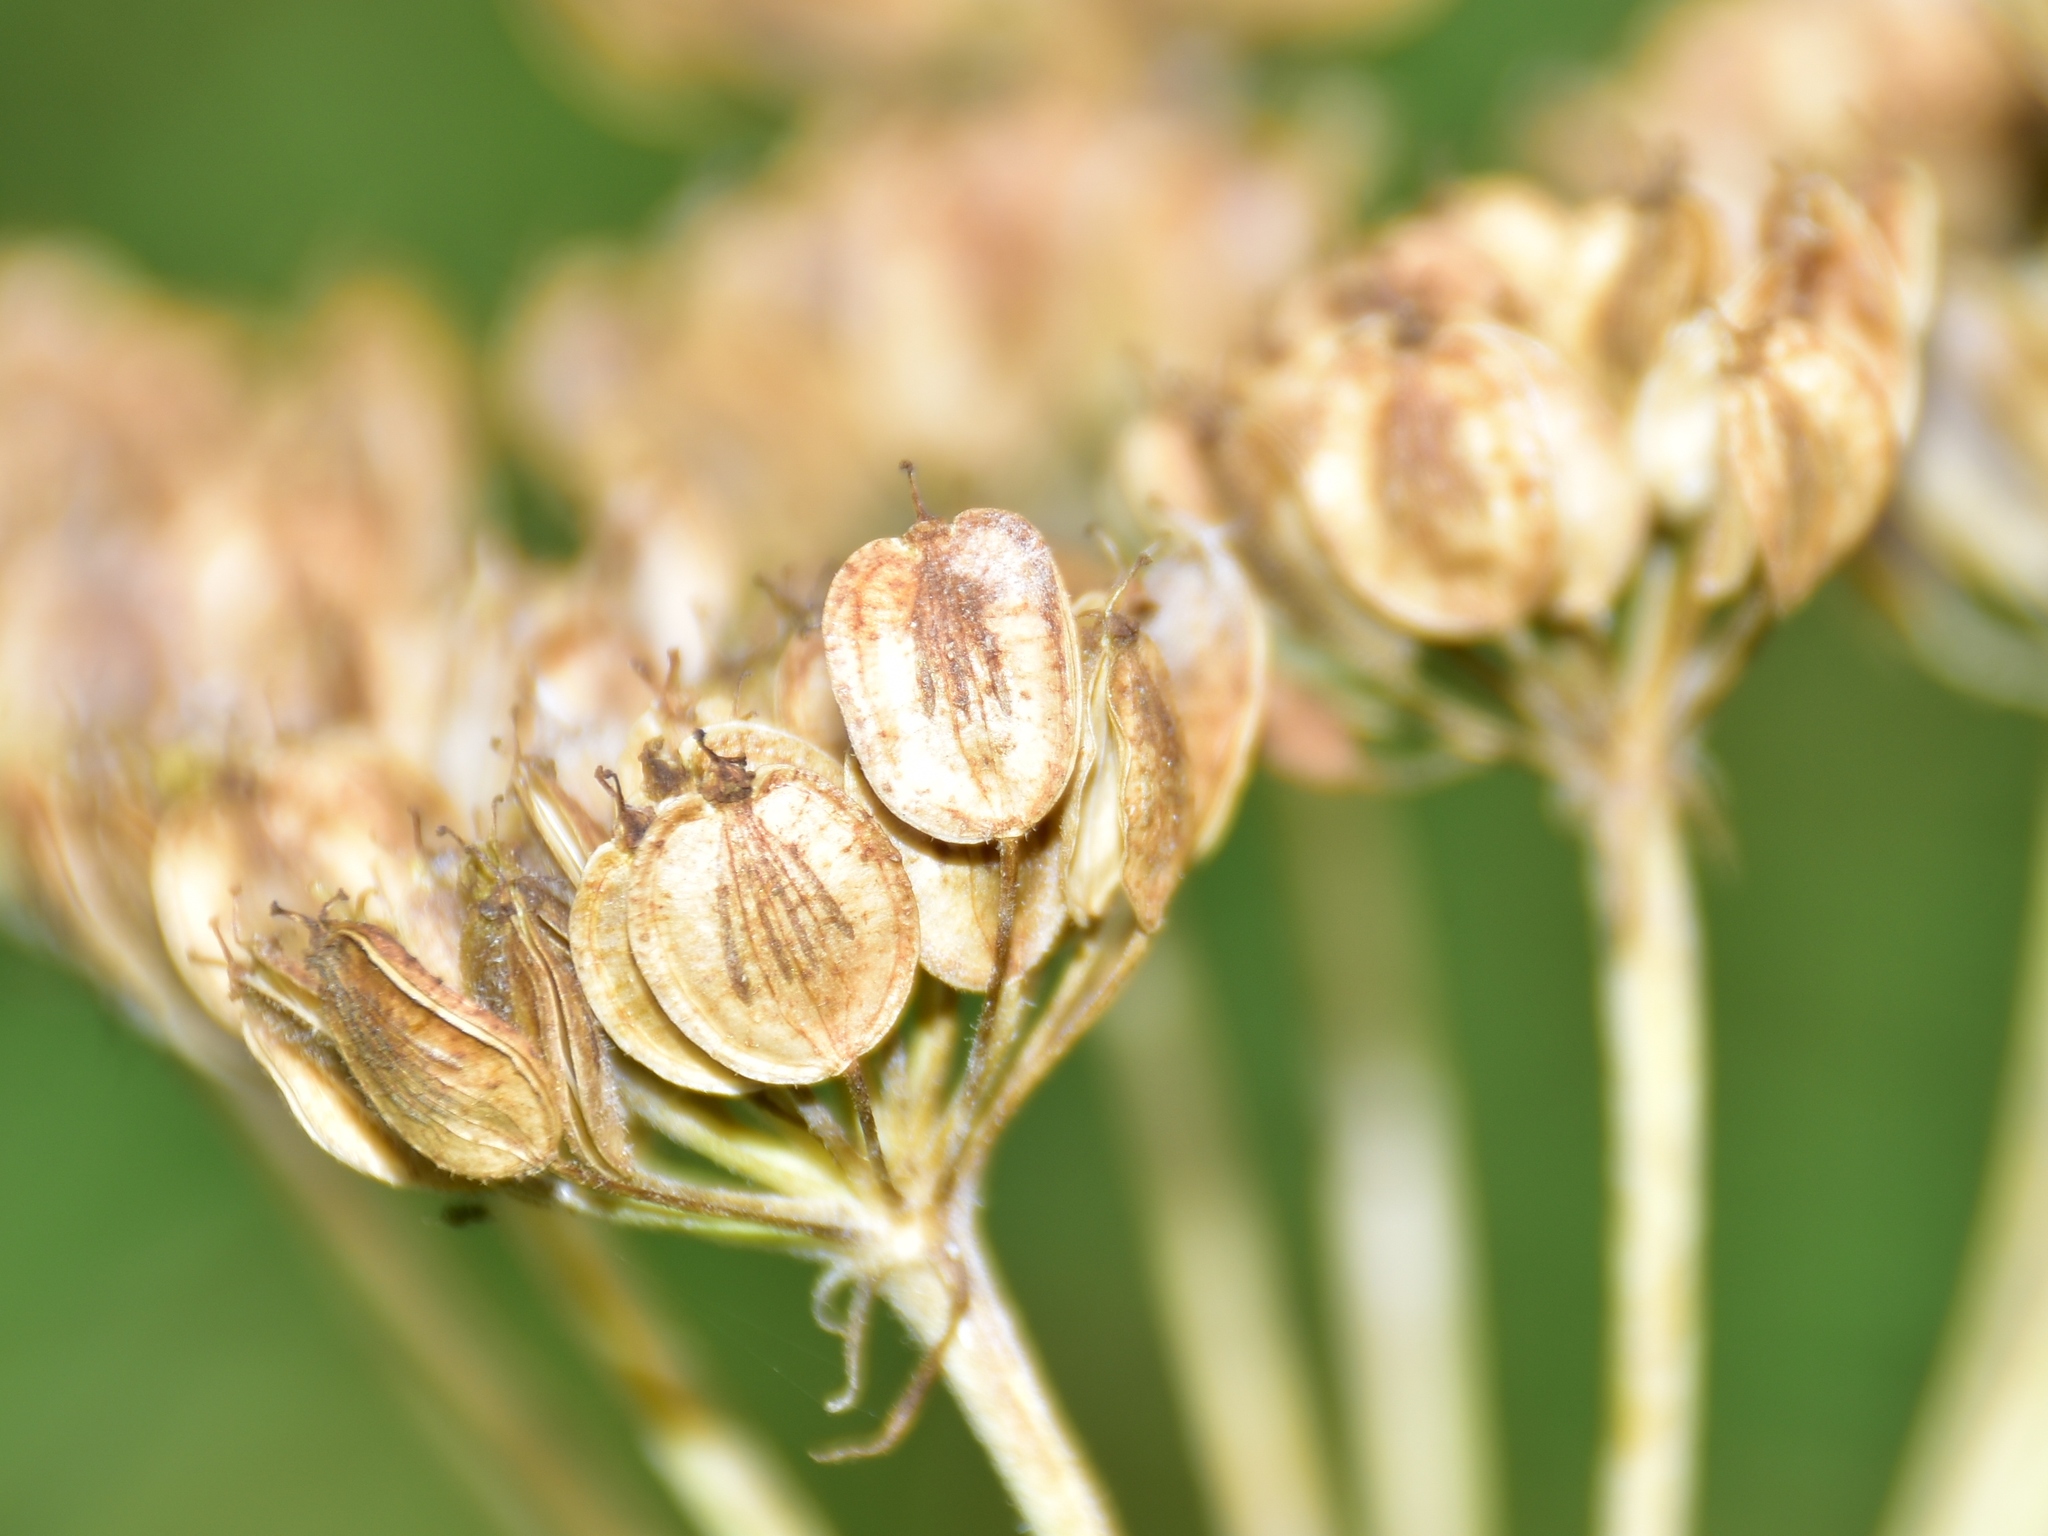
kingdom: Plantae
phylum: Tracheophyta
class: Magnoliopsida
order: Apiales
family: Apiaceae
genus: Heracleum
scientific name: Heracleum sphondylium
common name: Hogweed
